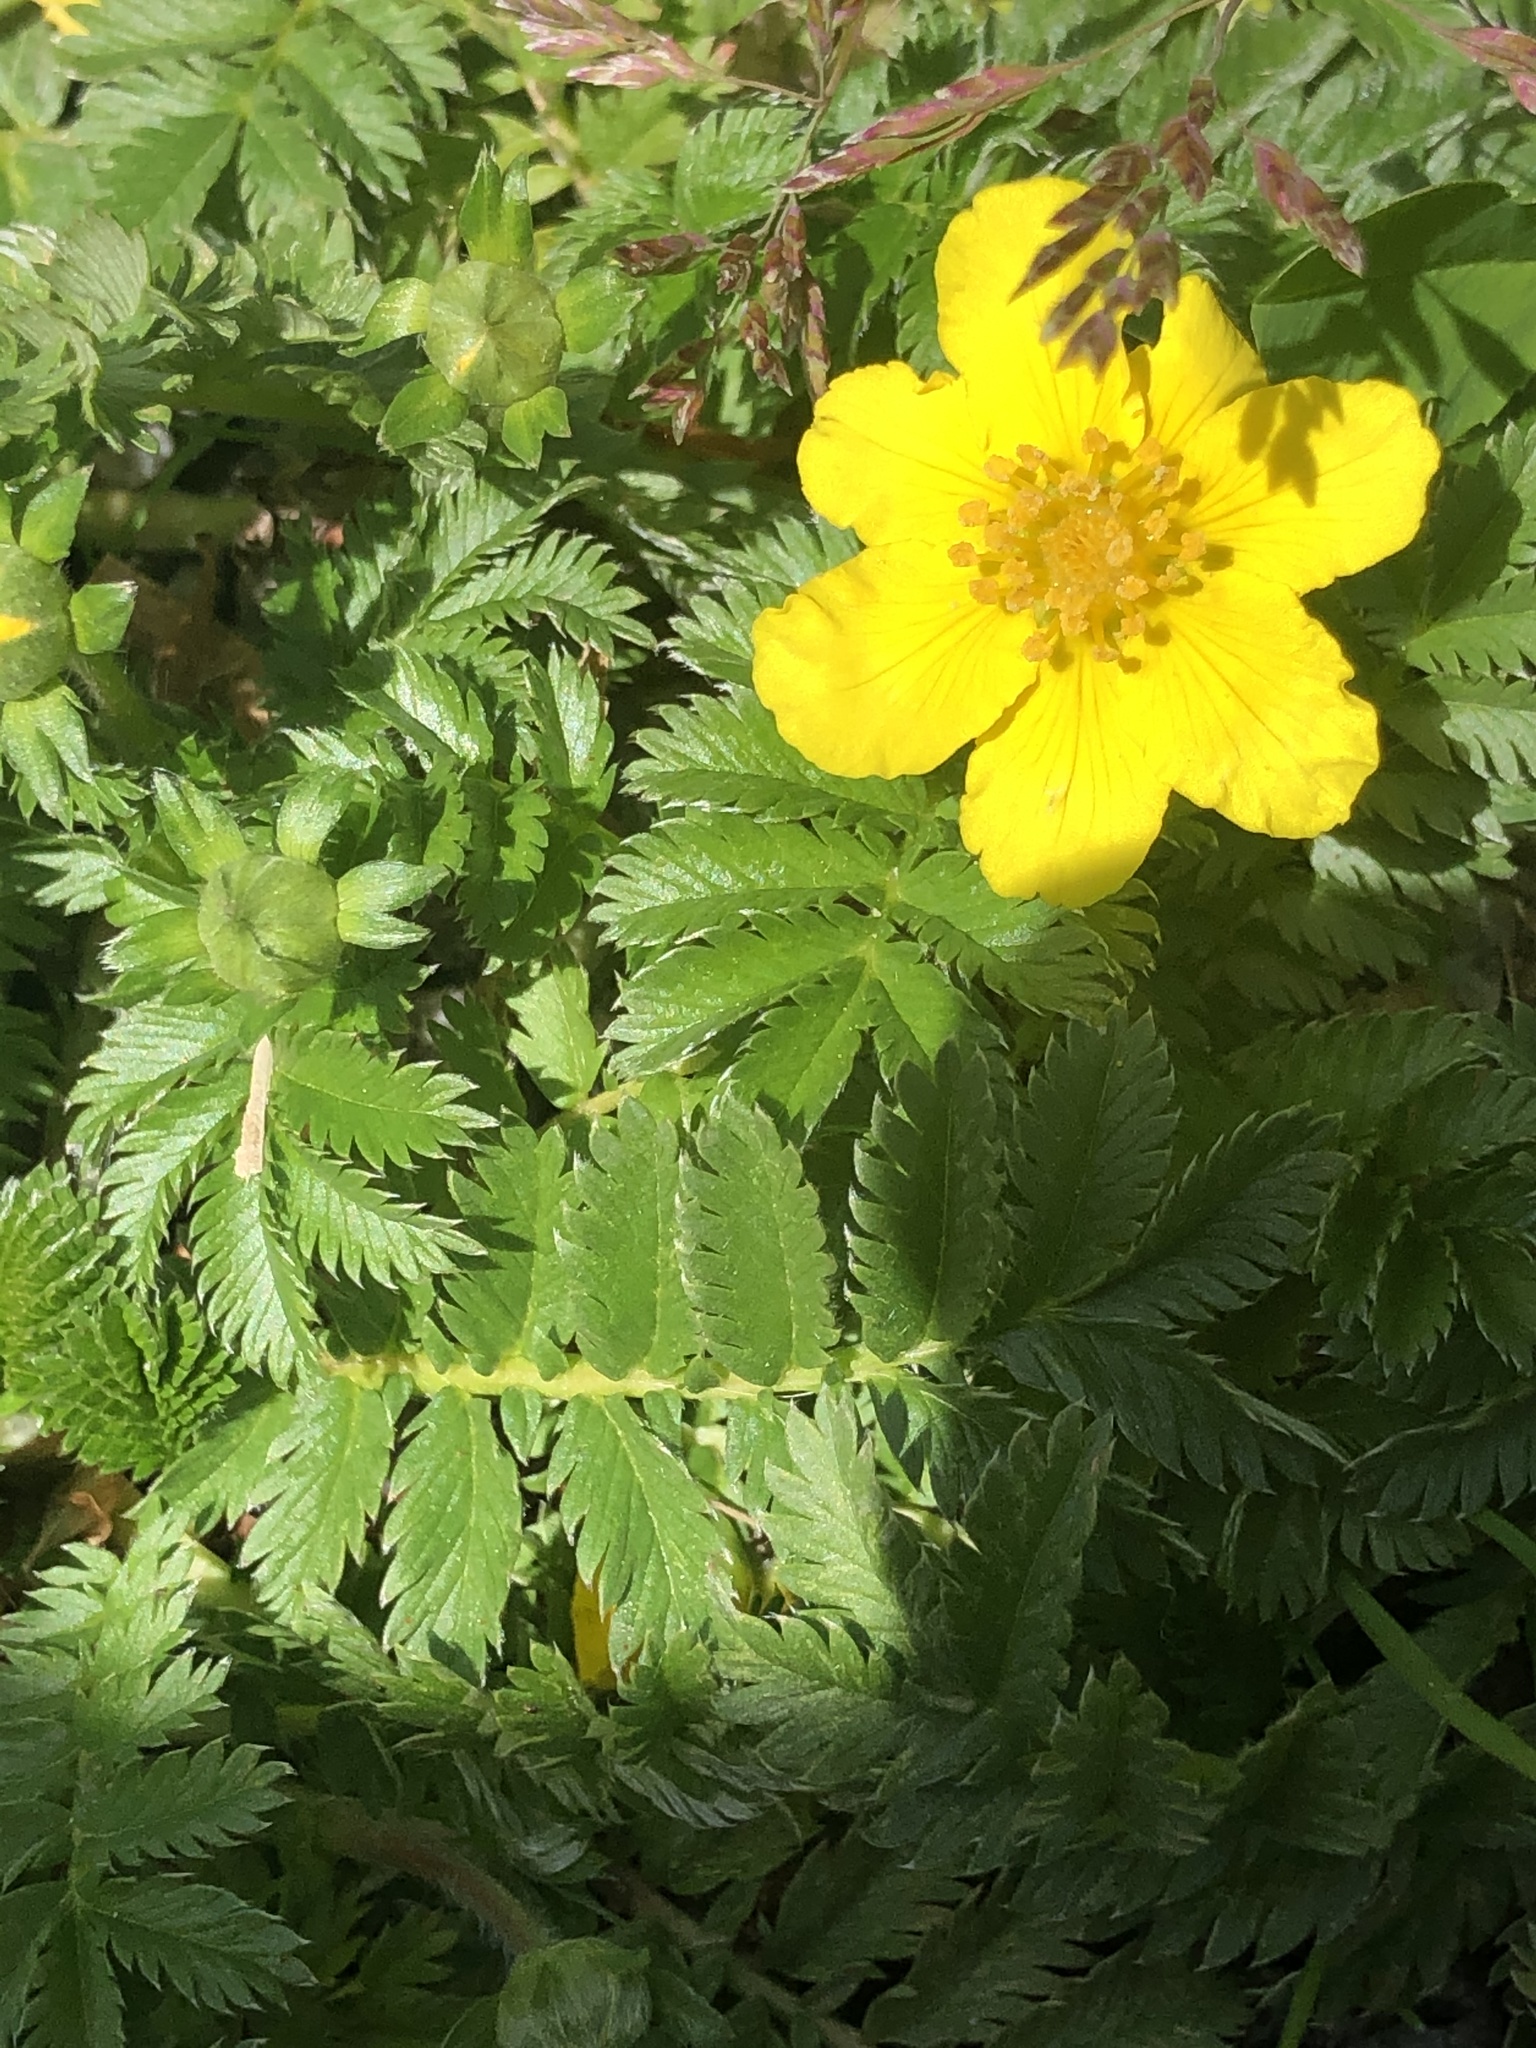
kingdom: Plantae
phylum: Tracheophyta
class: Magnoliopsida
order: Rosales
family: Rosaceae
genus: Argentina
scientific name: Argentina anserina
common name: Common silverweed
